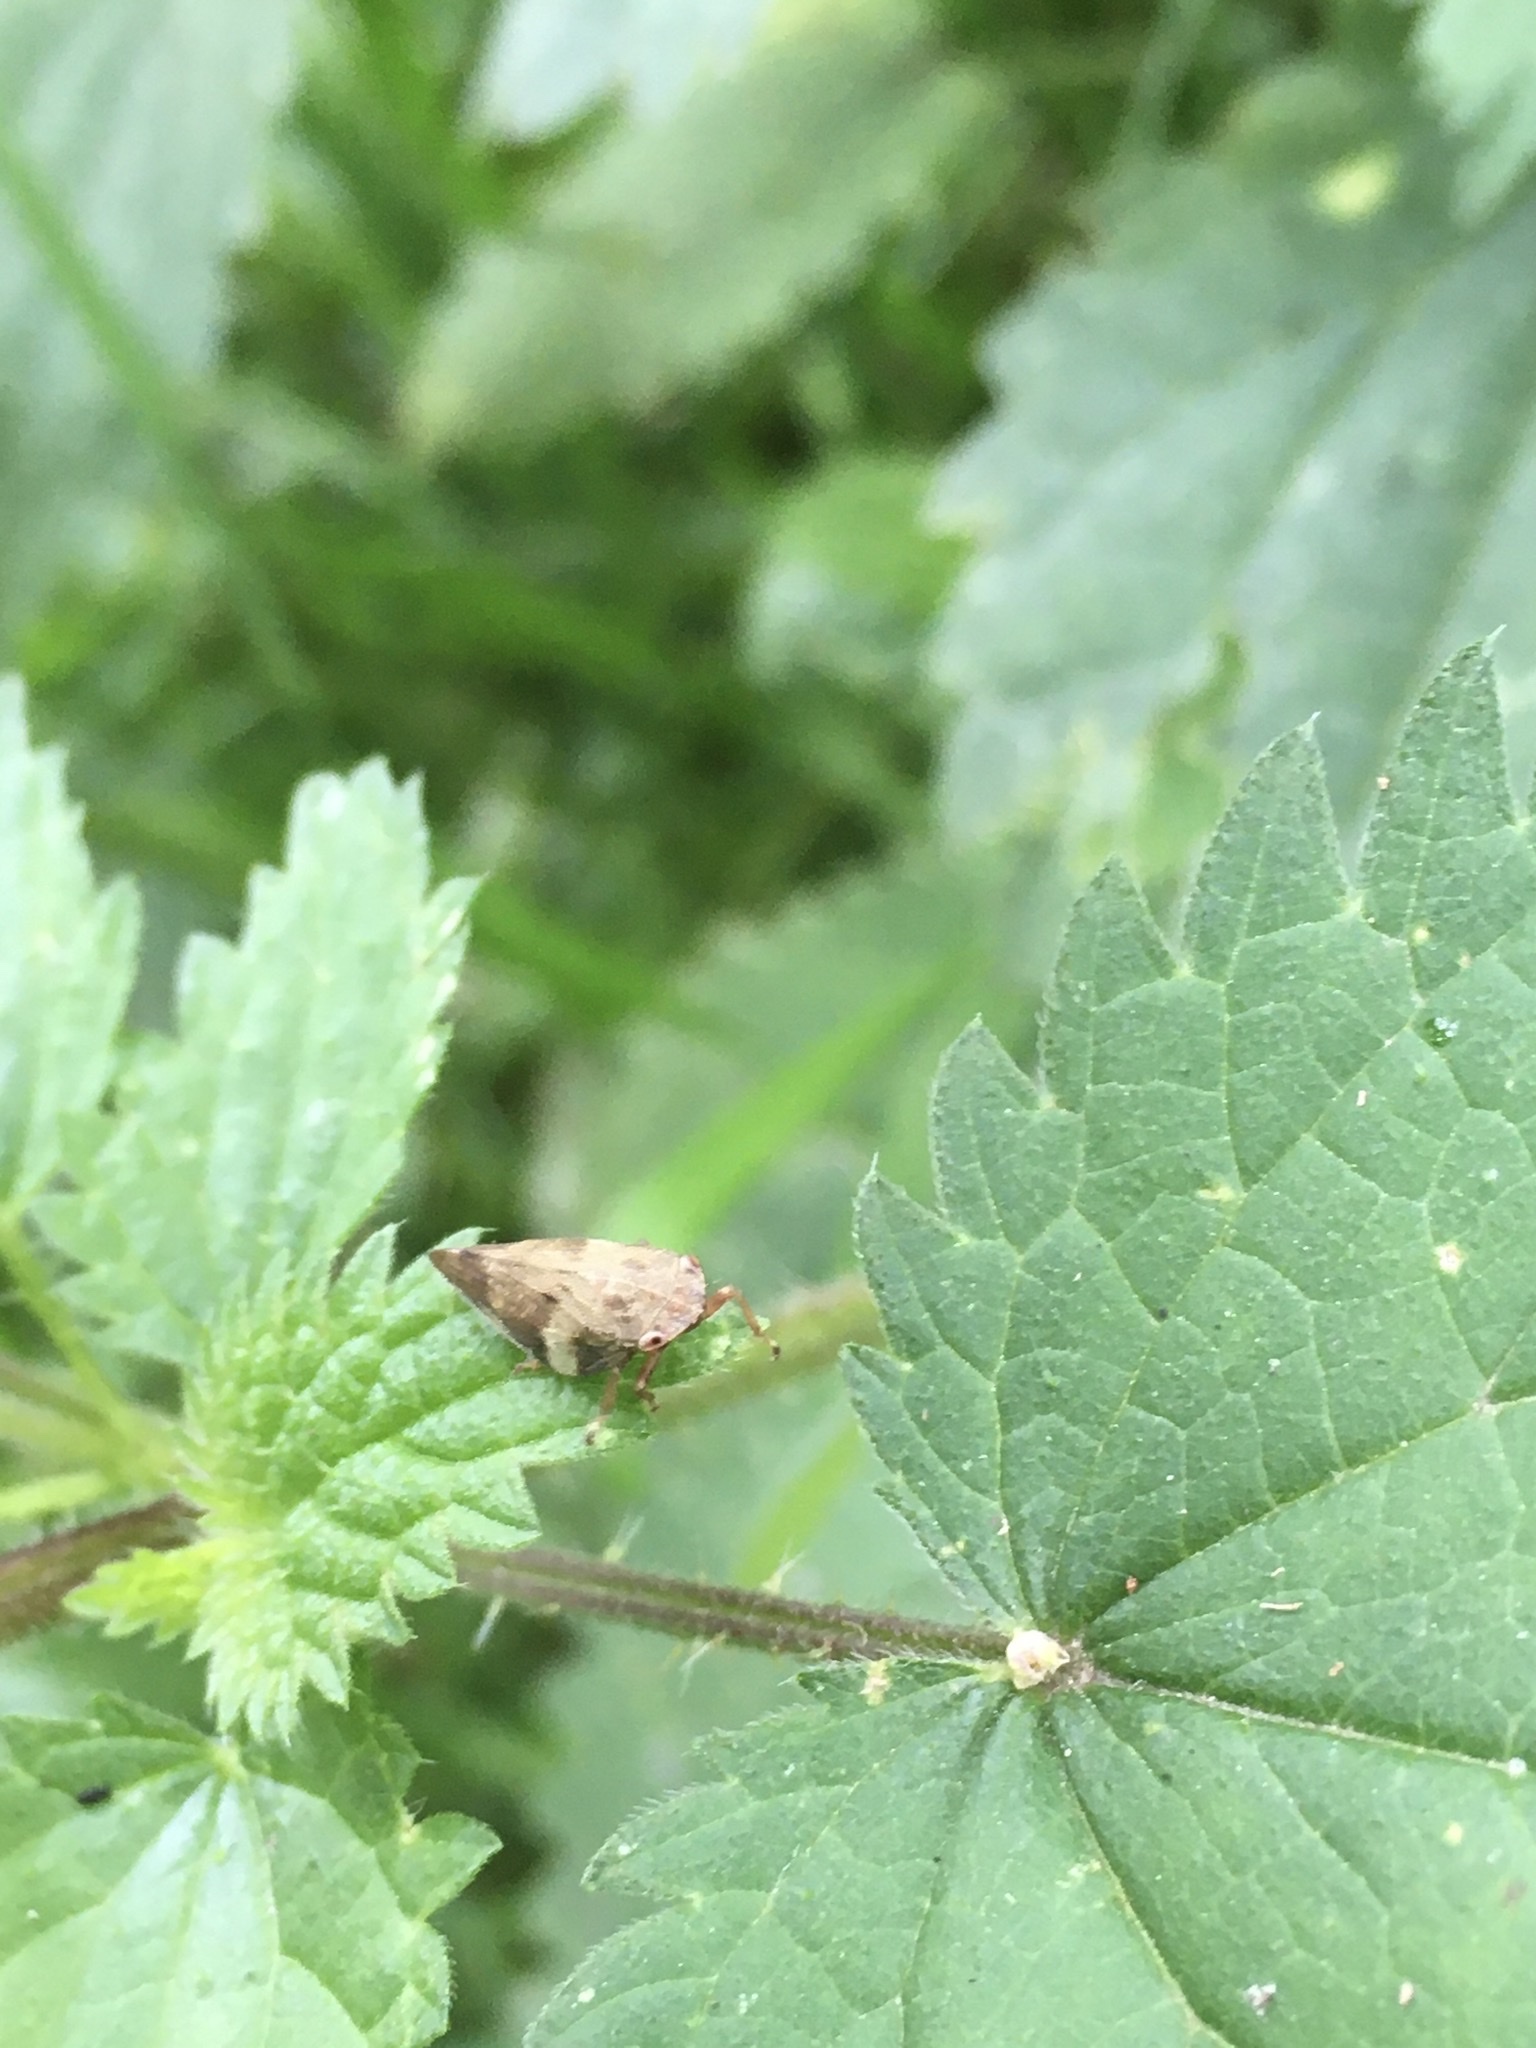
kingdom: Animalia
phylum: Arthropoda
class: Insecta
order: Hemiptera
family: Aphrophoridae
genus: Aphrophora
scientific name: Aphrophora alni
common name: European alder spittlebug
